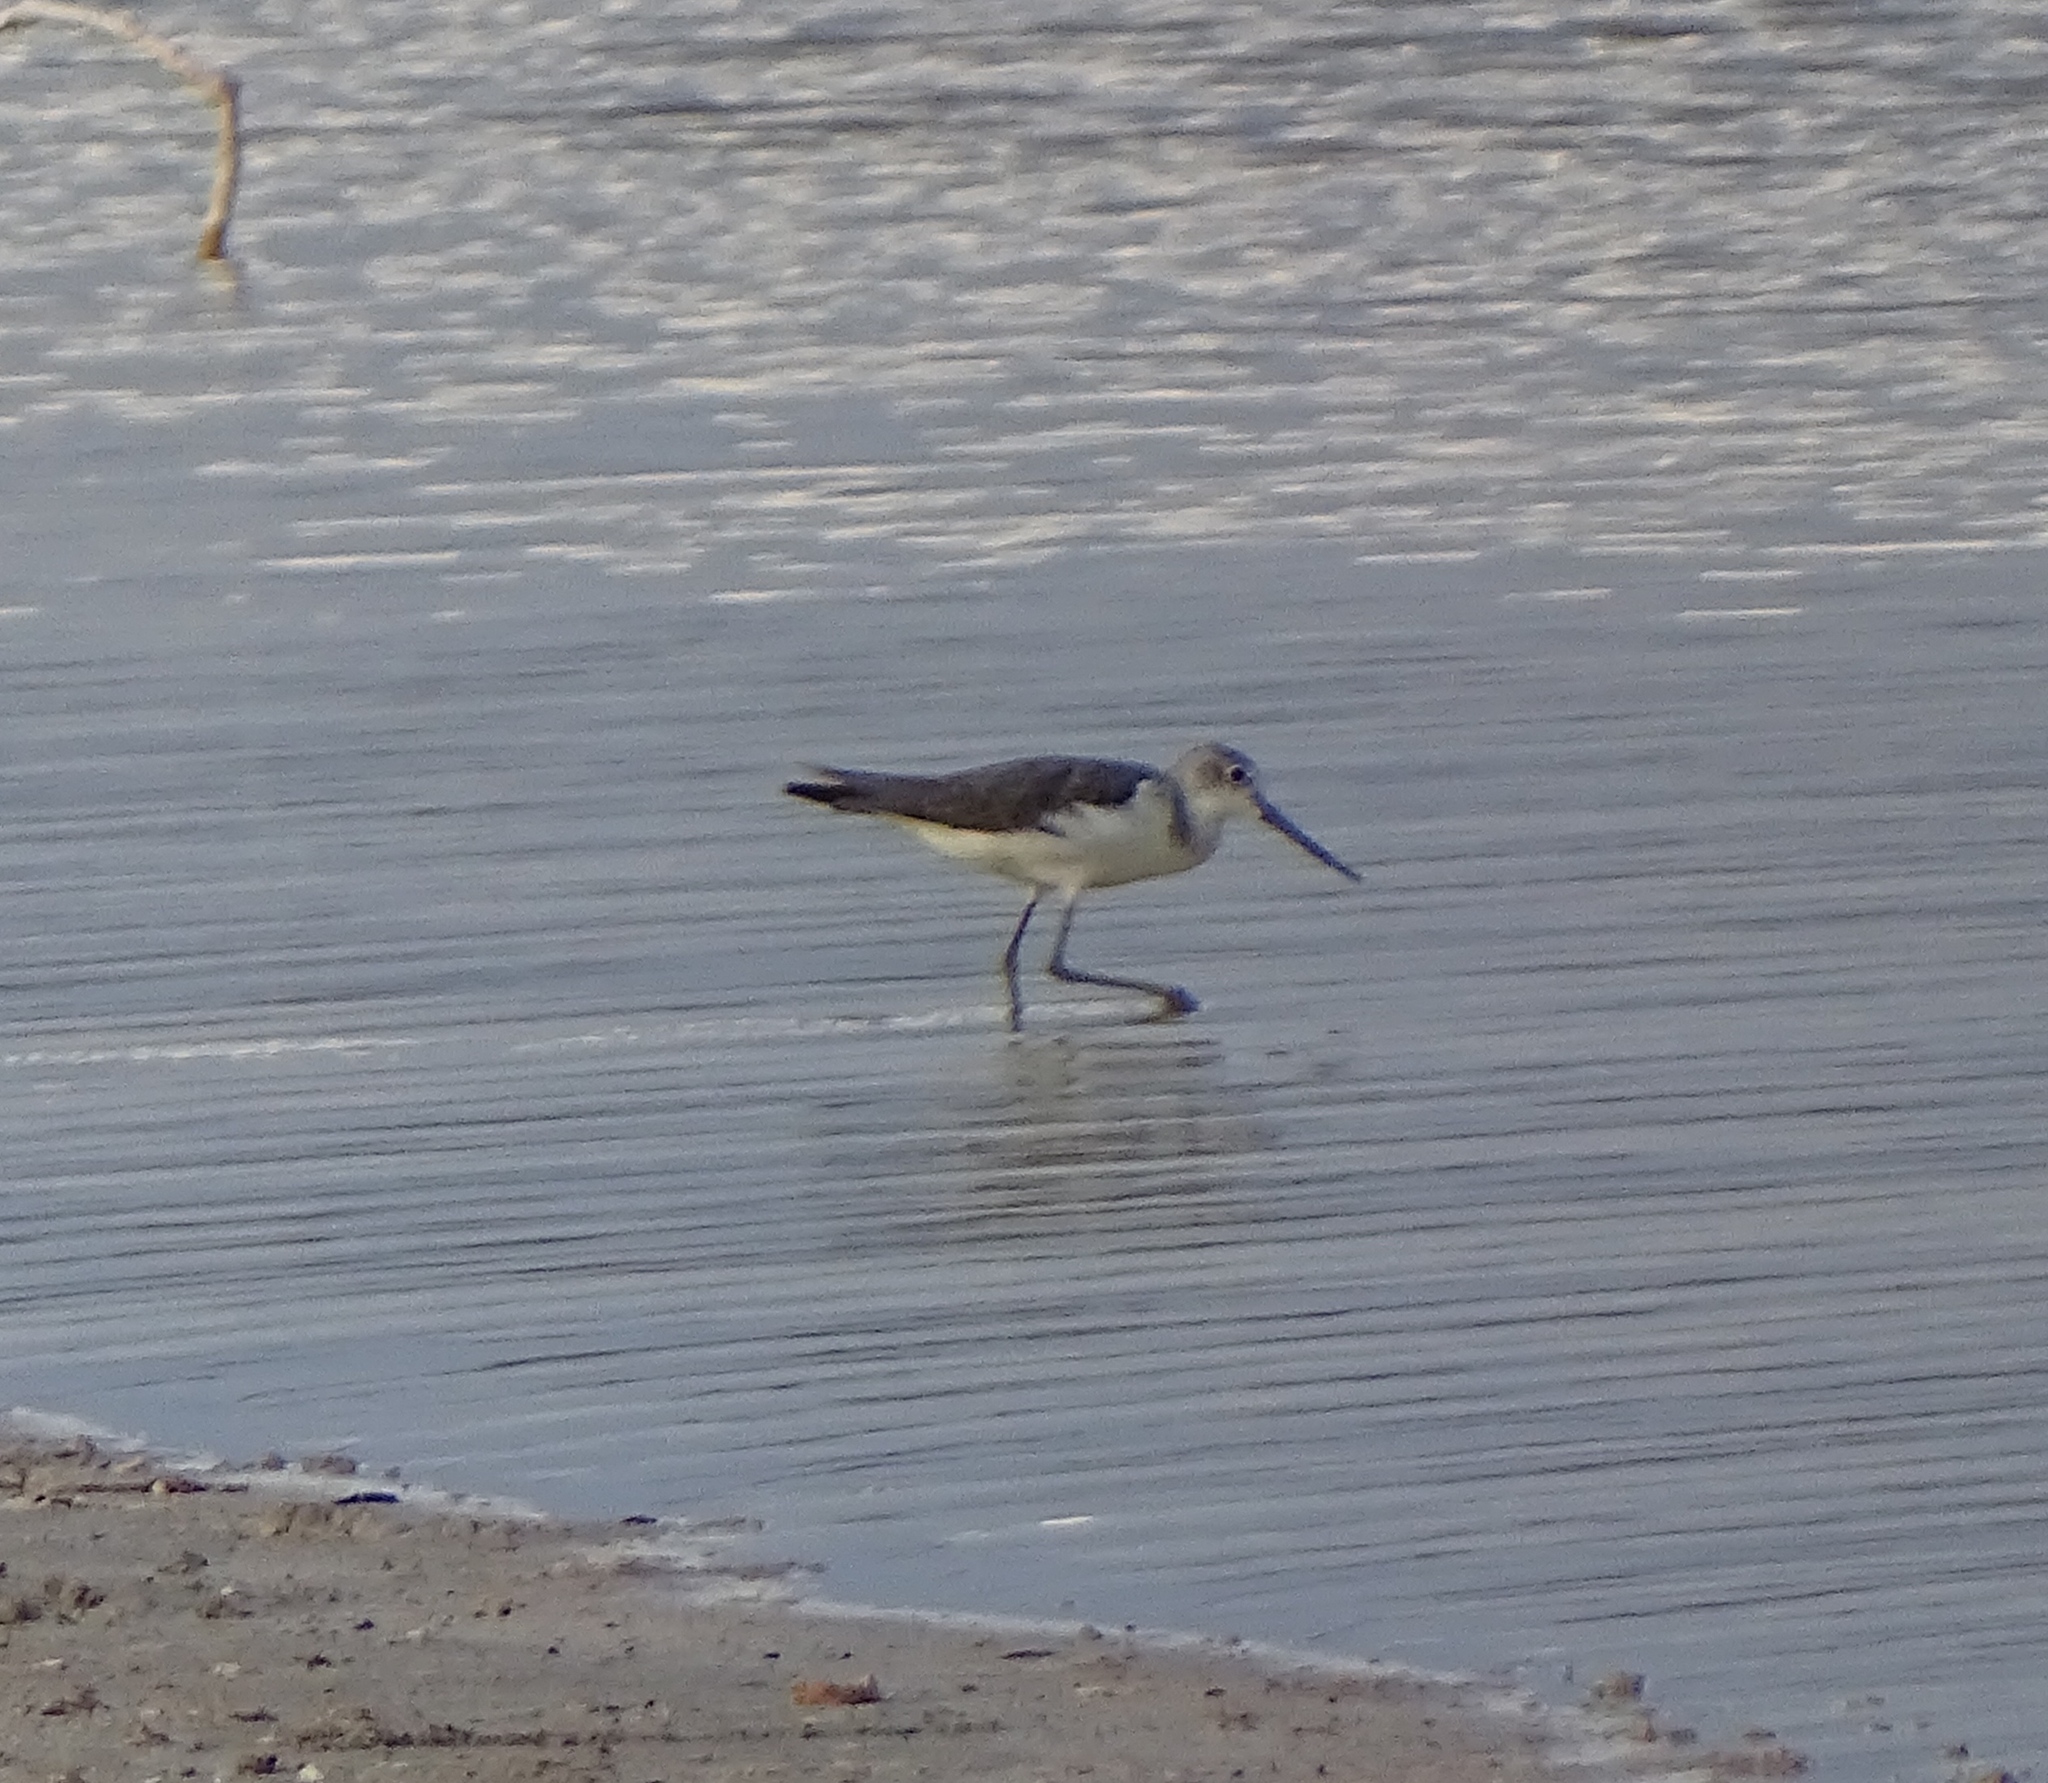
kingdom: Animalia
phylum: Chordata
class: Aves
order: Charadriiformes
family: Scolopacidae
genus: Tringa
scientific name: Tringa nebularia
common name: Common greenshank
